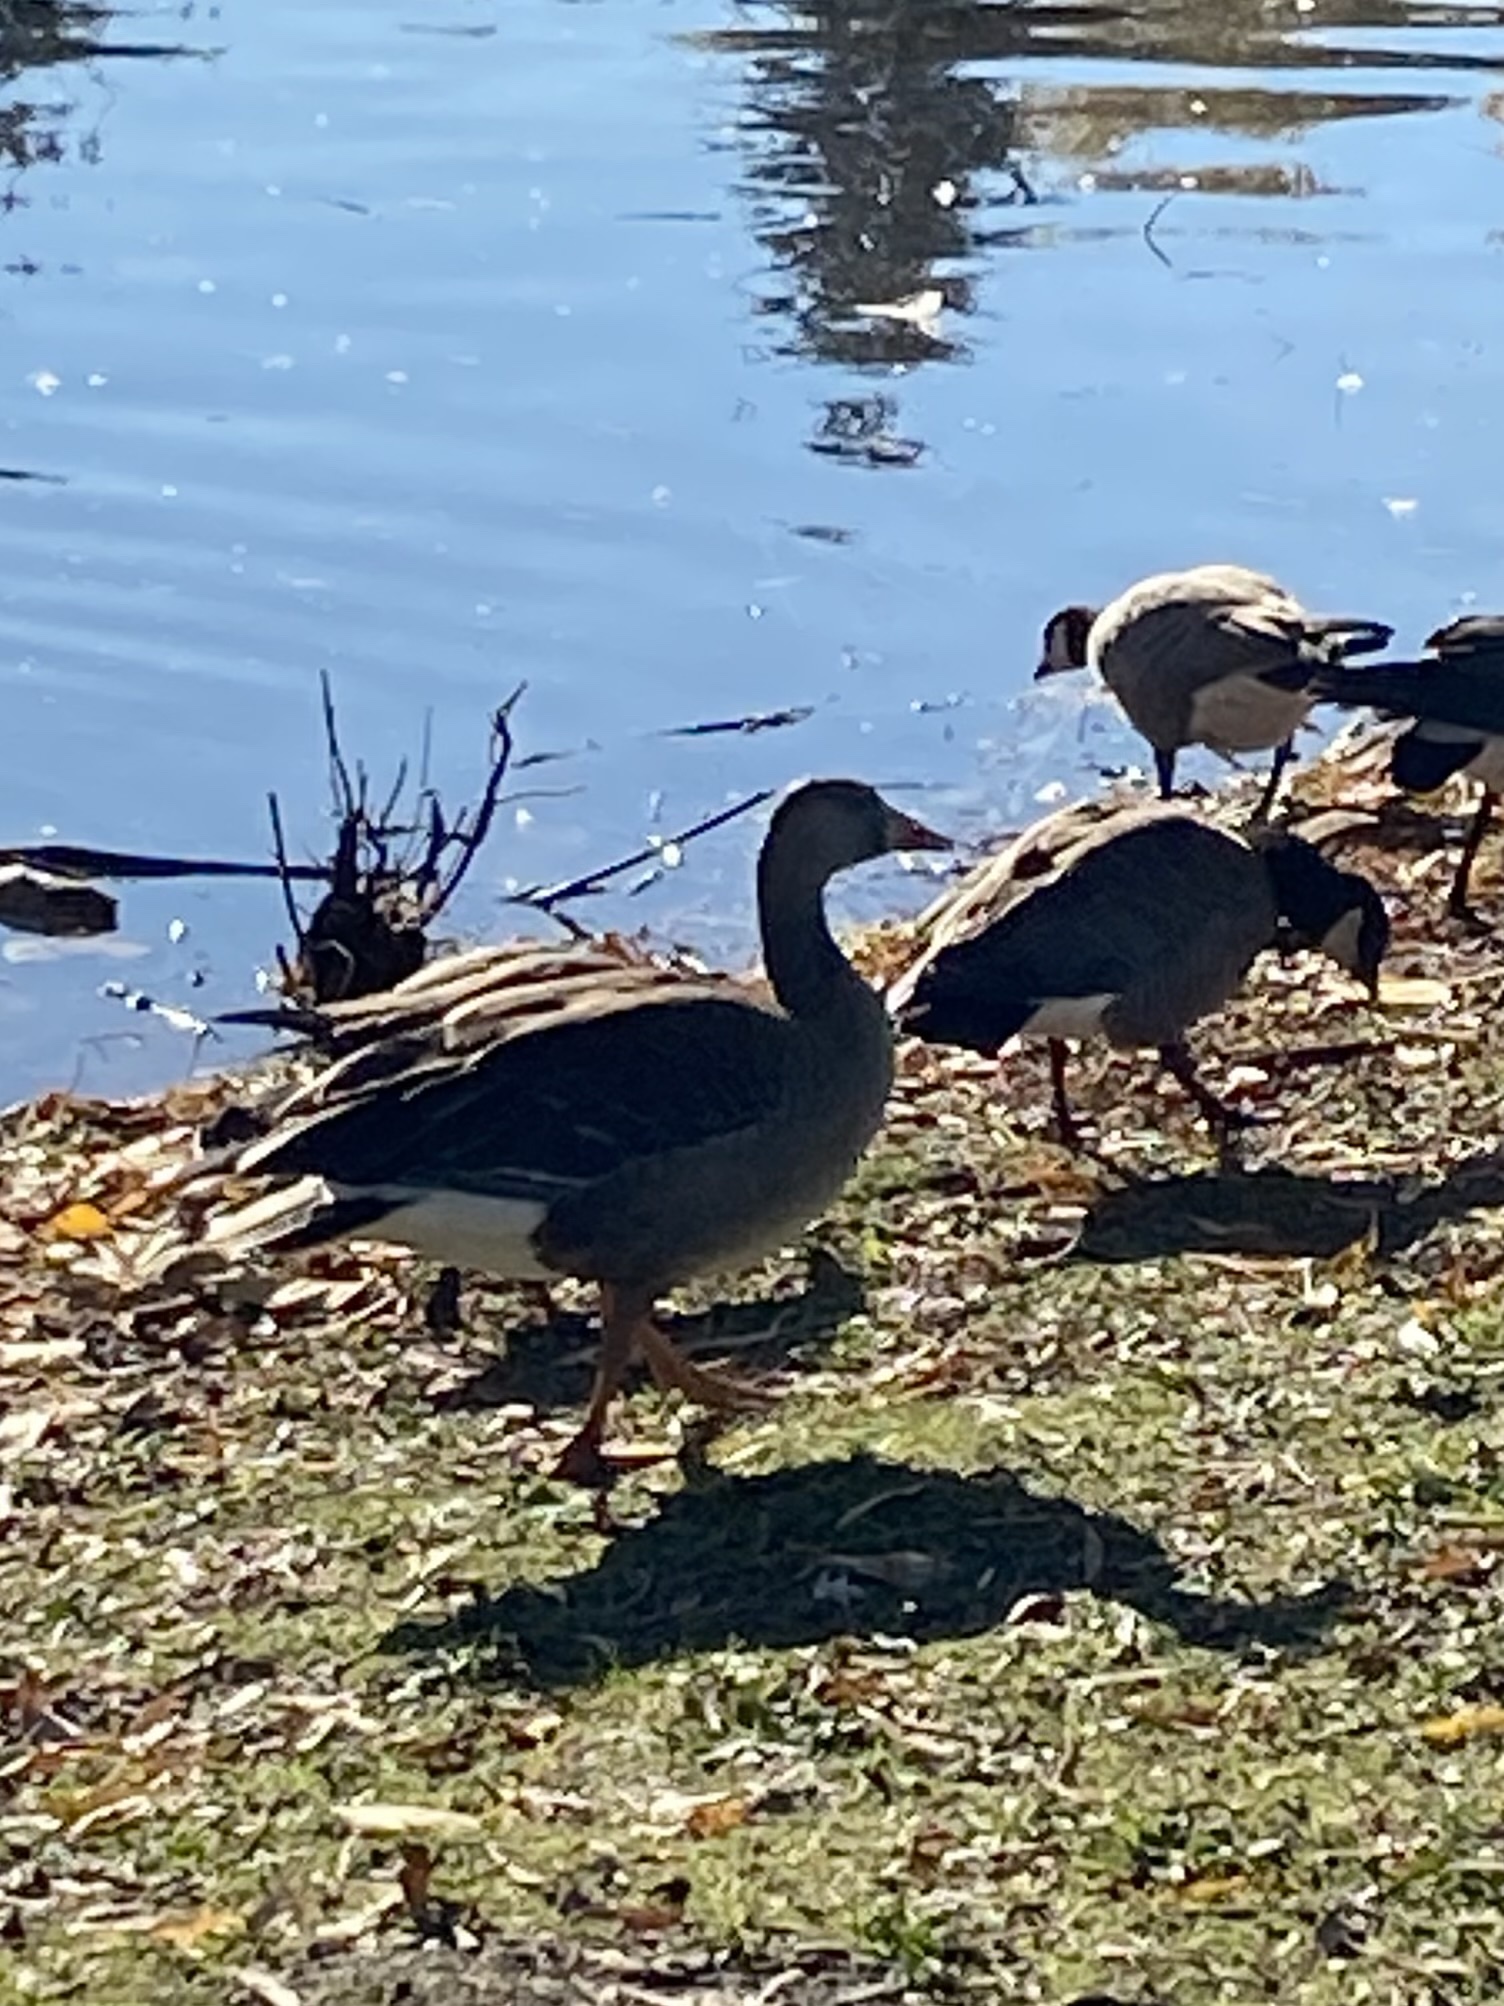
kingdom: Animalia
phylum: Chordata
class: Aves
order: Anseriformes
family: Anatidae
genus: Anser
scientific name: Anser albifrons
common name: Greater white-fronted goose
